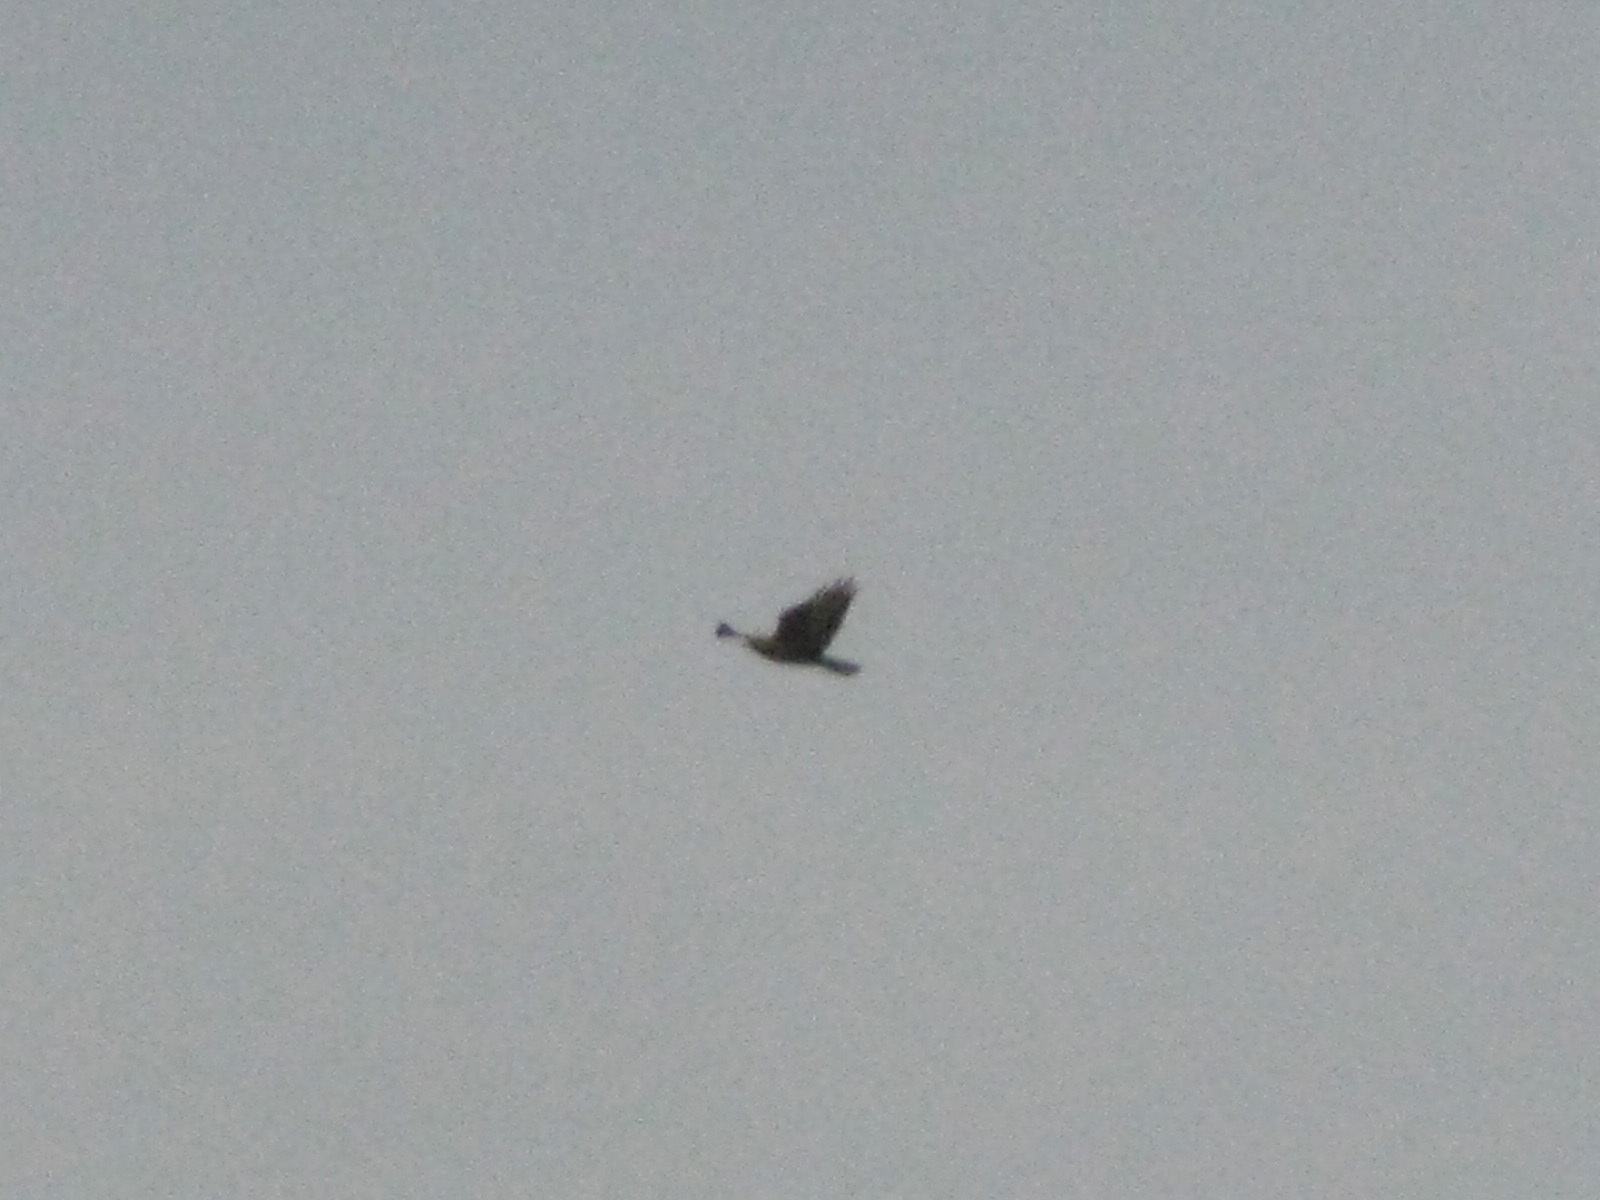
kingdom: Animalia
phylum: Chordata
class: Aves
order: Accipitriformes
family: Accipitridae
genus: Buteo
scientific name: Buteo buteo
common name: Common buzzard
